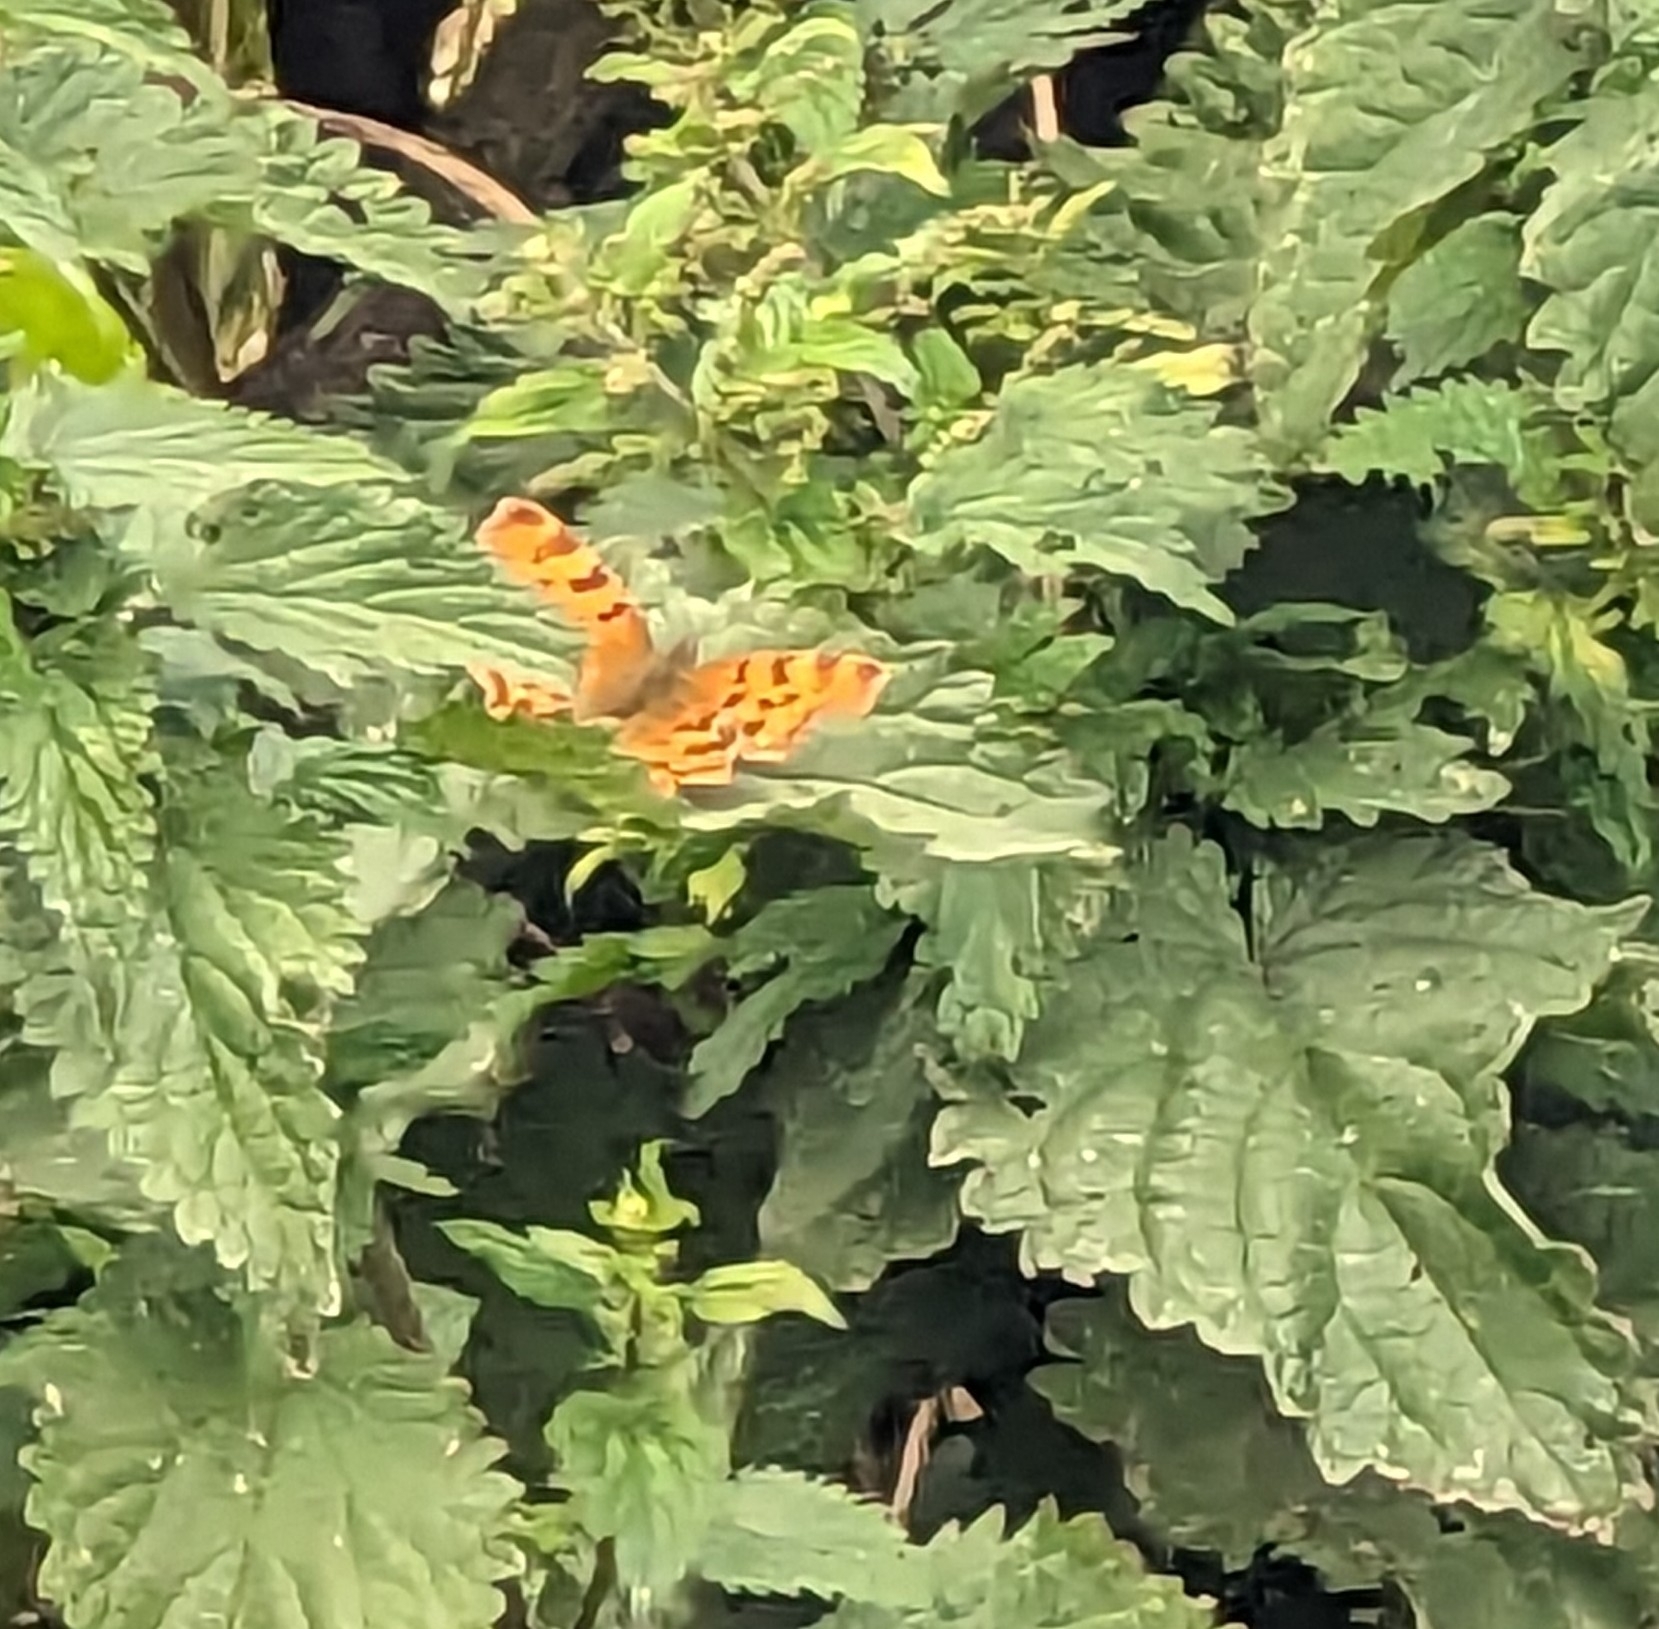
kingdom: Animalia
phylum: Arthropoda
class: Insecta
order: Lepidoptera
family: Nymphalidae
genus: Polygonia
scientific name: Polygonia c-album
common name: Comma
